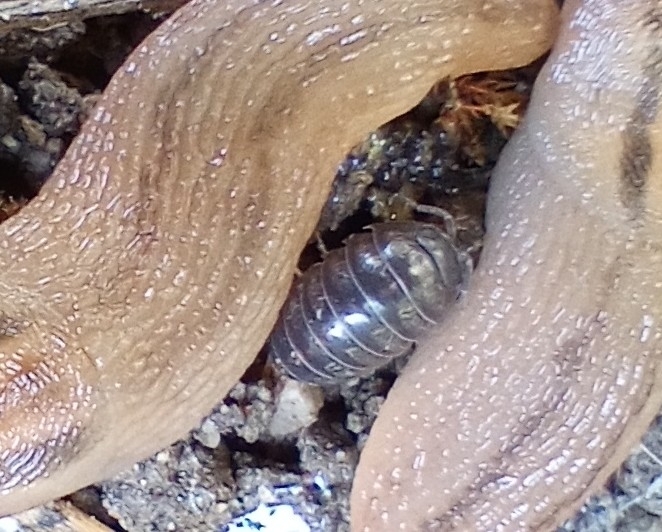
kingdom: Animalia
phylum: Arthropoda
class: Malacostraca
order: Isopoda
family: Armadillidiidae
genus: Armadillidium
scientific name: Armadillidium vulgare
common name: Common pill woodlouse
